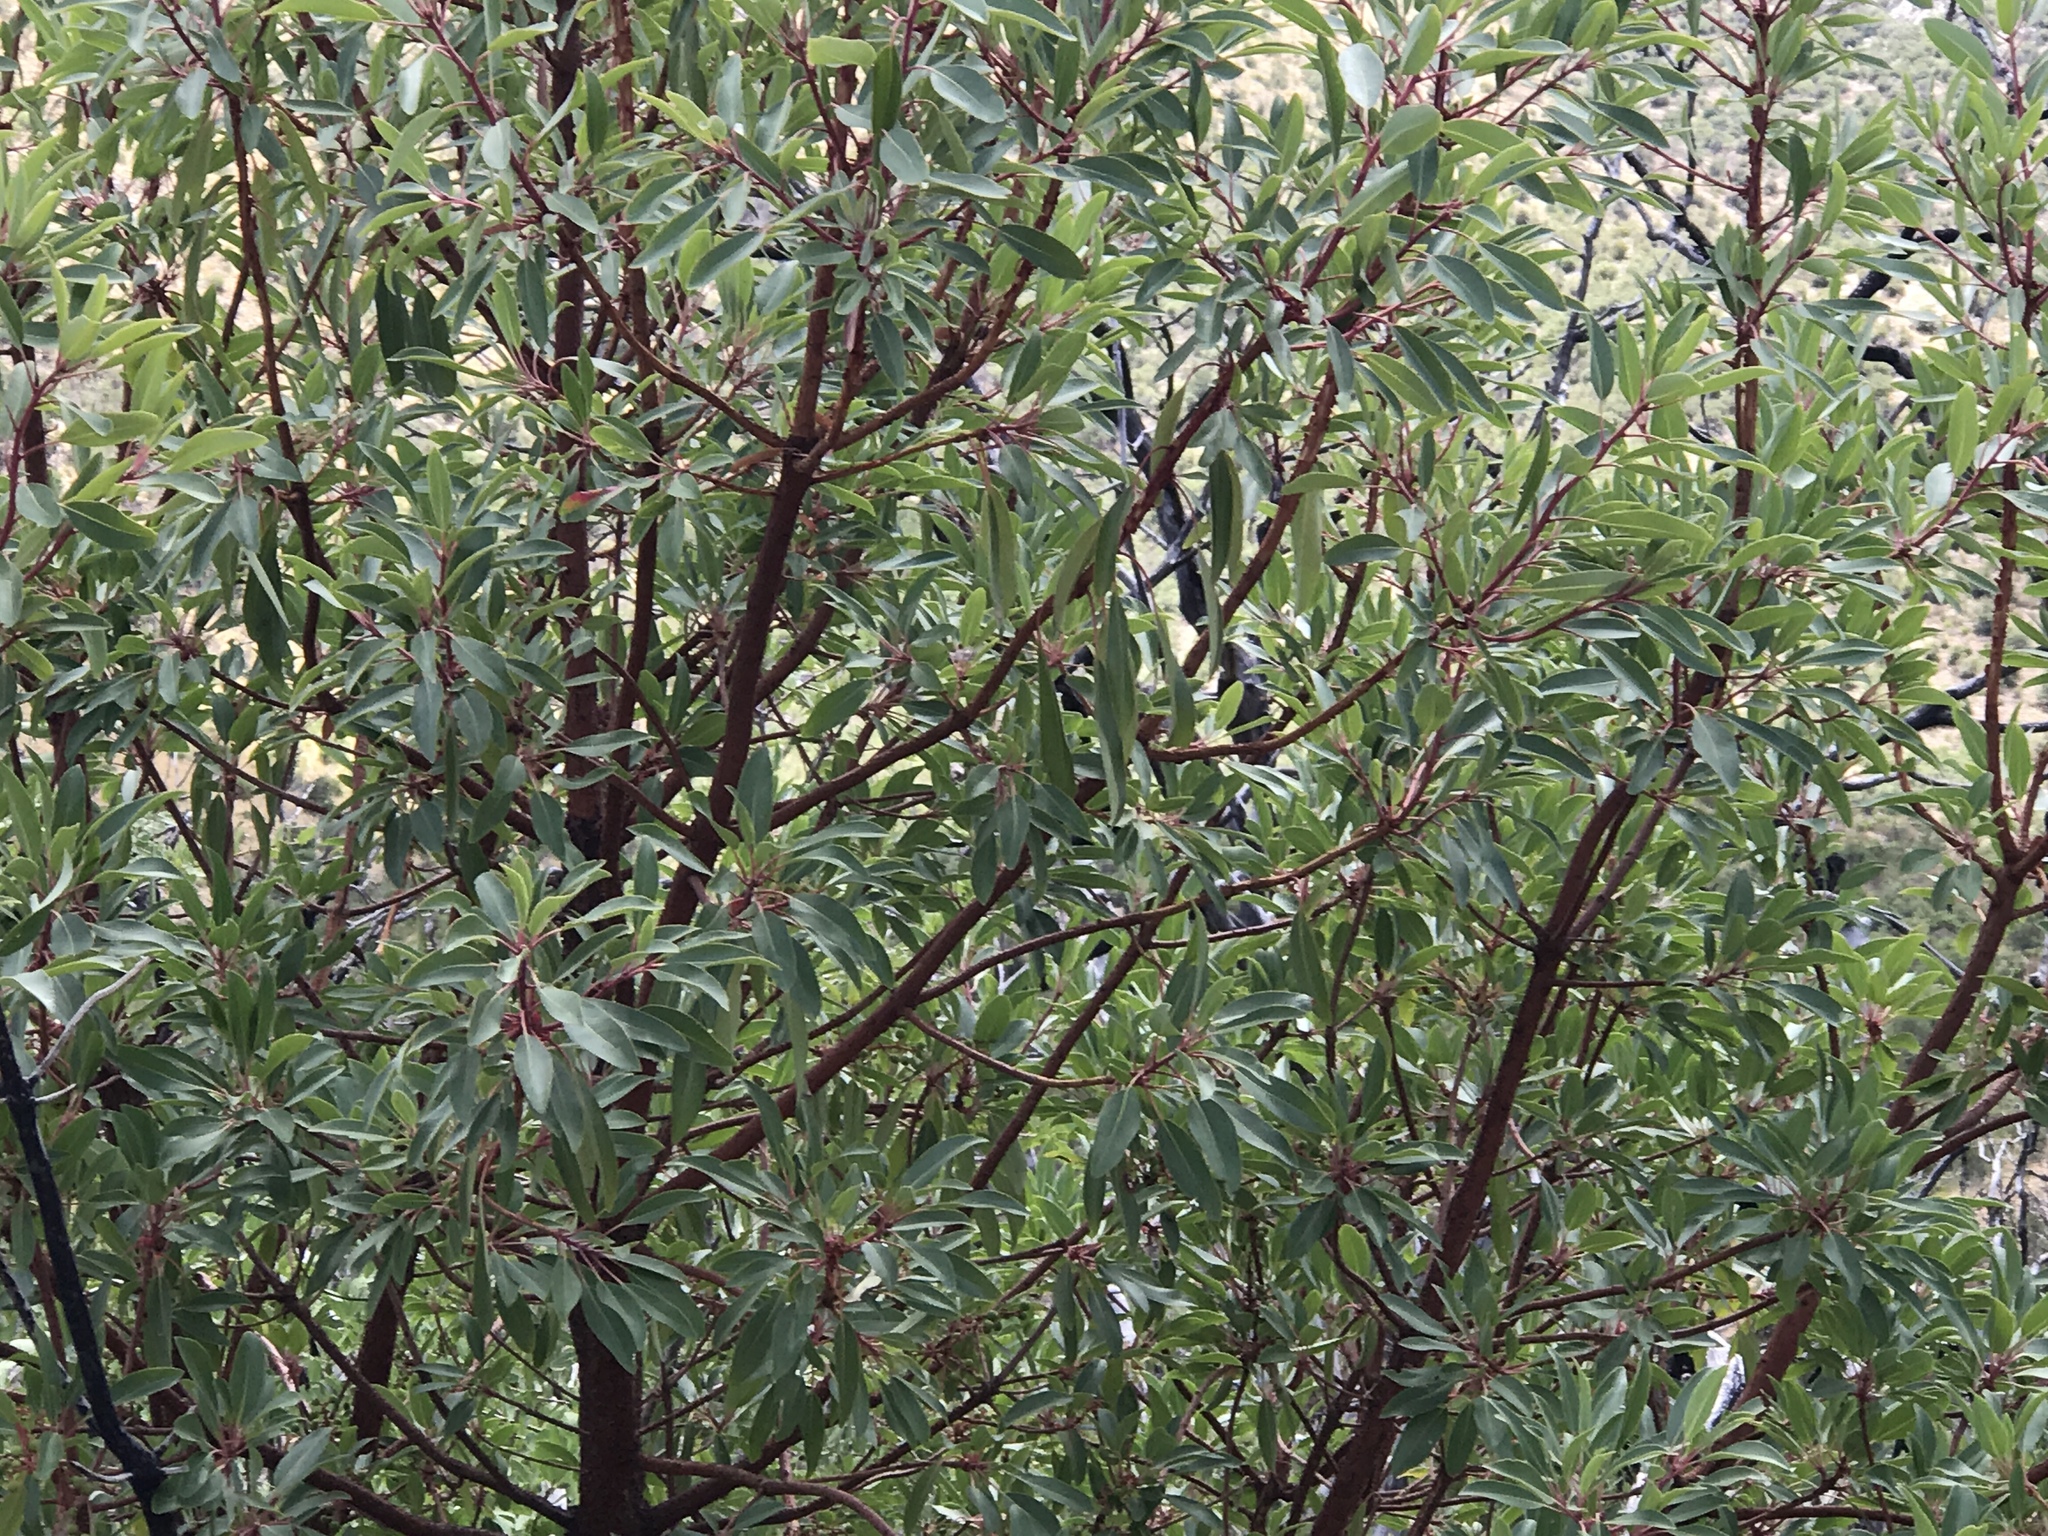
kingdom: Plantae
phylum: Tracheophyta
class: Magnoliopsida
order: Ericales
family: Ericaceae
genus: Arbutus
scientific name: Arbutus arizonica
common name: Arizona madrone
